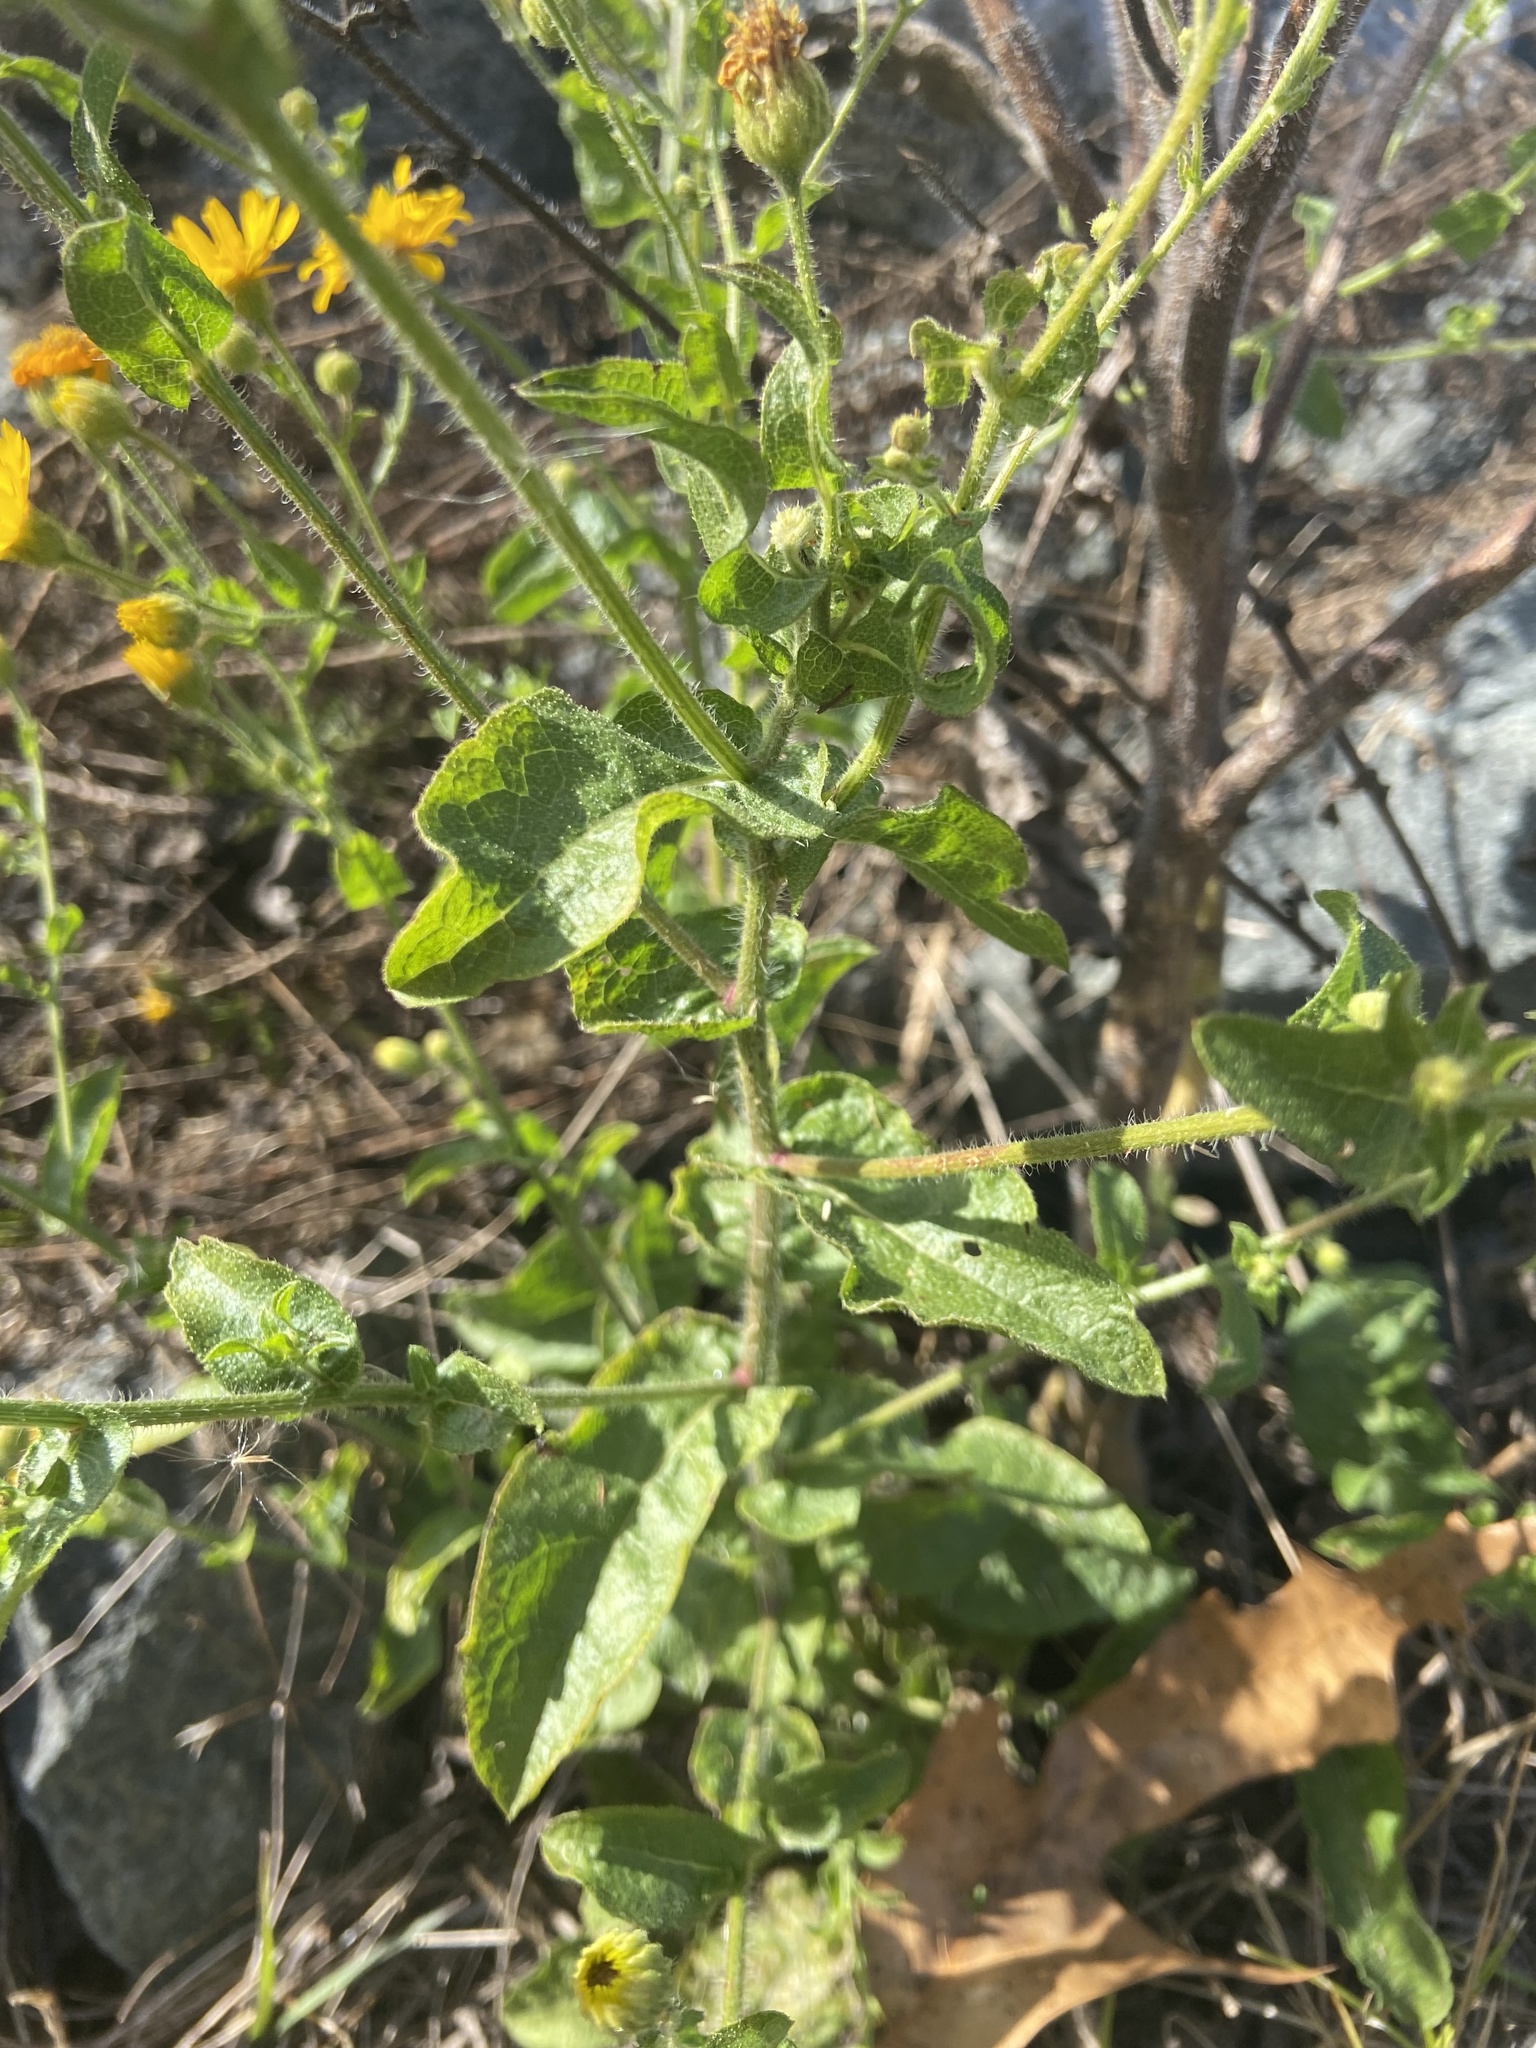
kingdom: Plantae
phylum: Tracheophyta
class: Magnoliopsida
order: Asterales
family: Asteraceae
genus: Heterotheca
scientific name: Heterotheca subaxillaris
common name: Camphorweed
